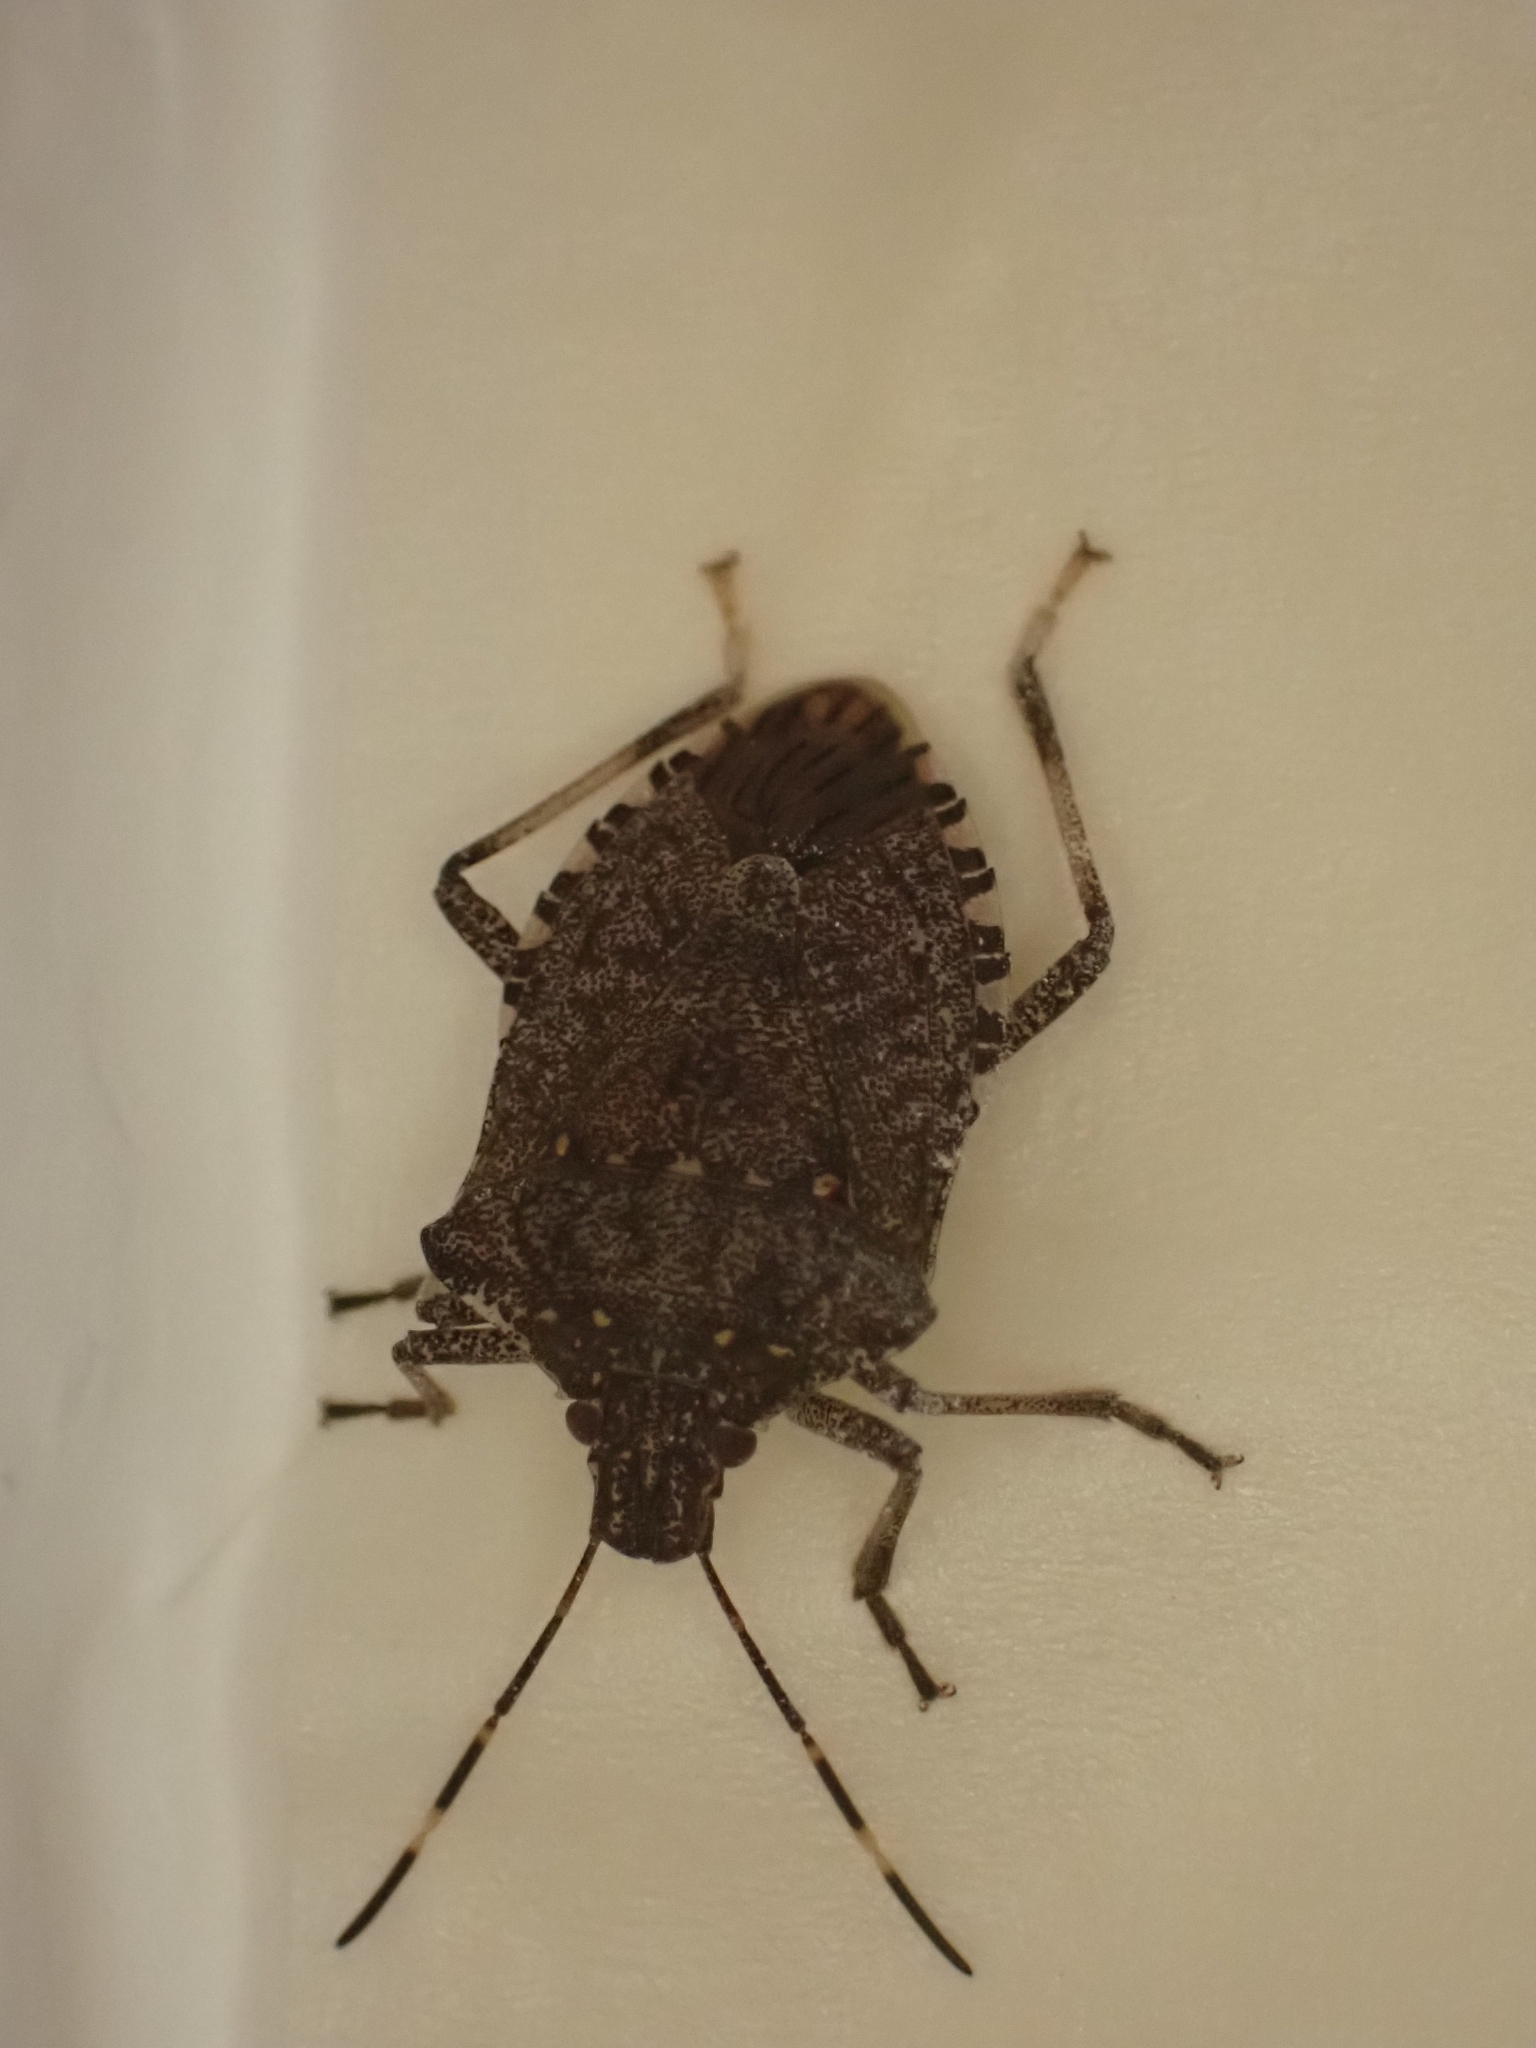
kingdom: Animalia
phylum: Arthropoda
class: Insecta
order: Hemiptera
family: Pentatomidae
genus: Halyomorpha
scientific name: Halyomorpha halys
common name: Brown marmorated stink bug
